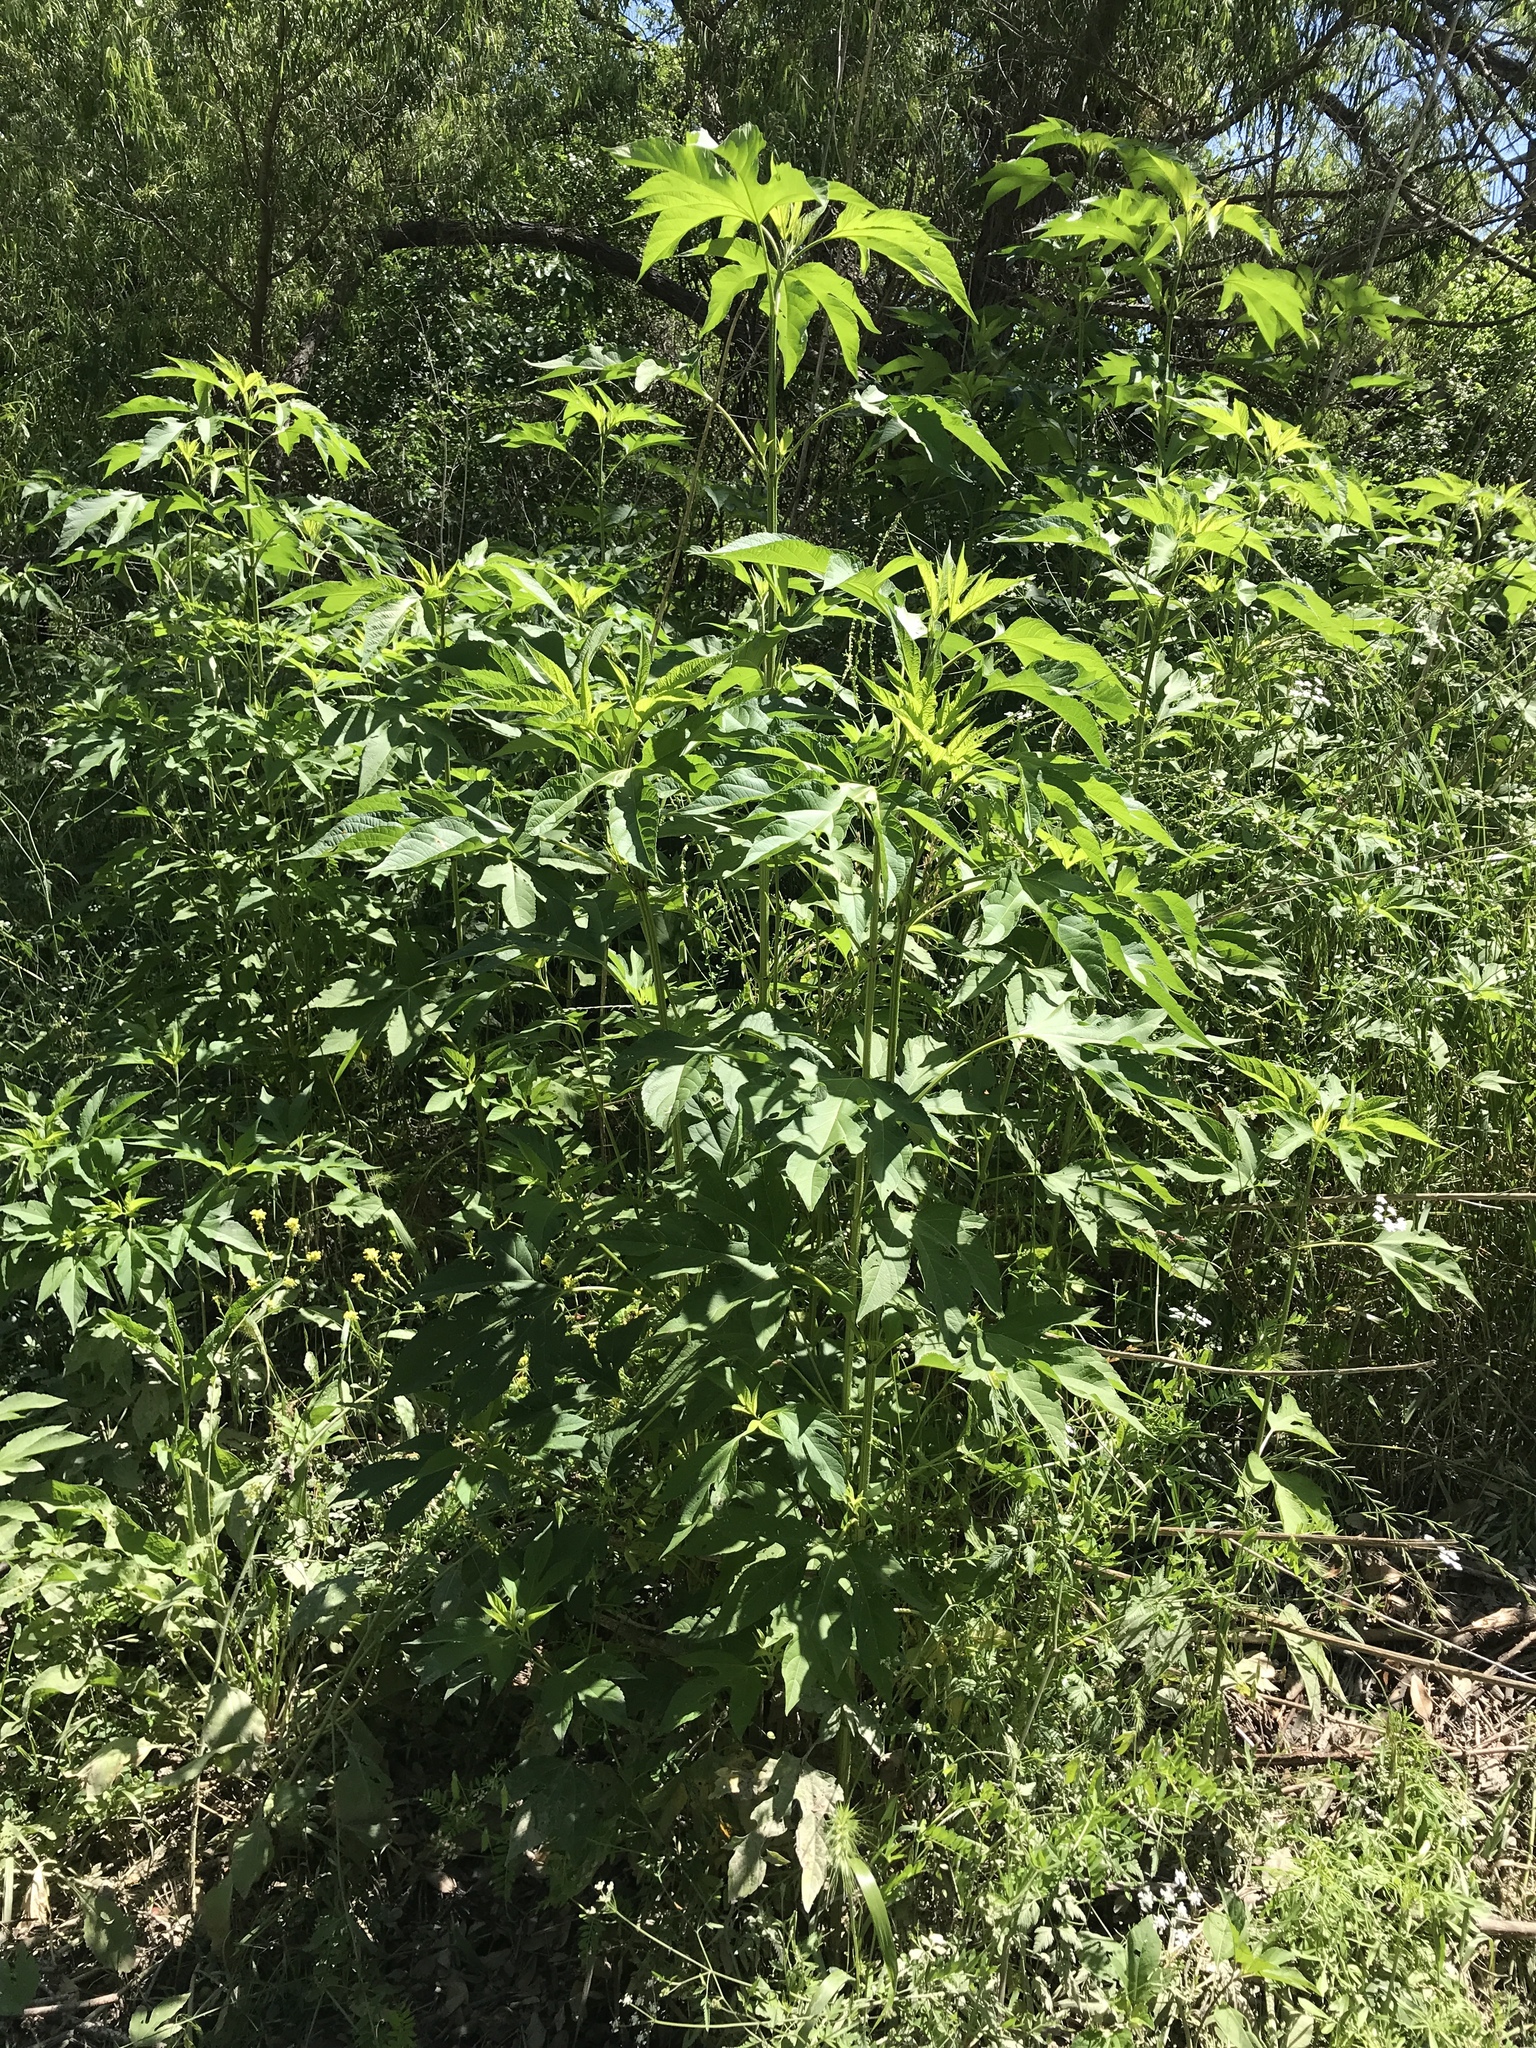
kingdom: Plantae
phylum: Tracheophyta
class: Magnoliopsida
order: Asterales
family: Asteraceae
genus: Ambrosia
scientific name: Ambrosia trifida
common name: Giant ragweed
